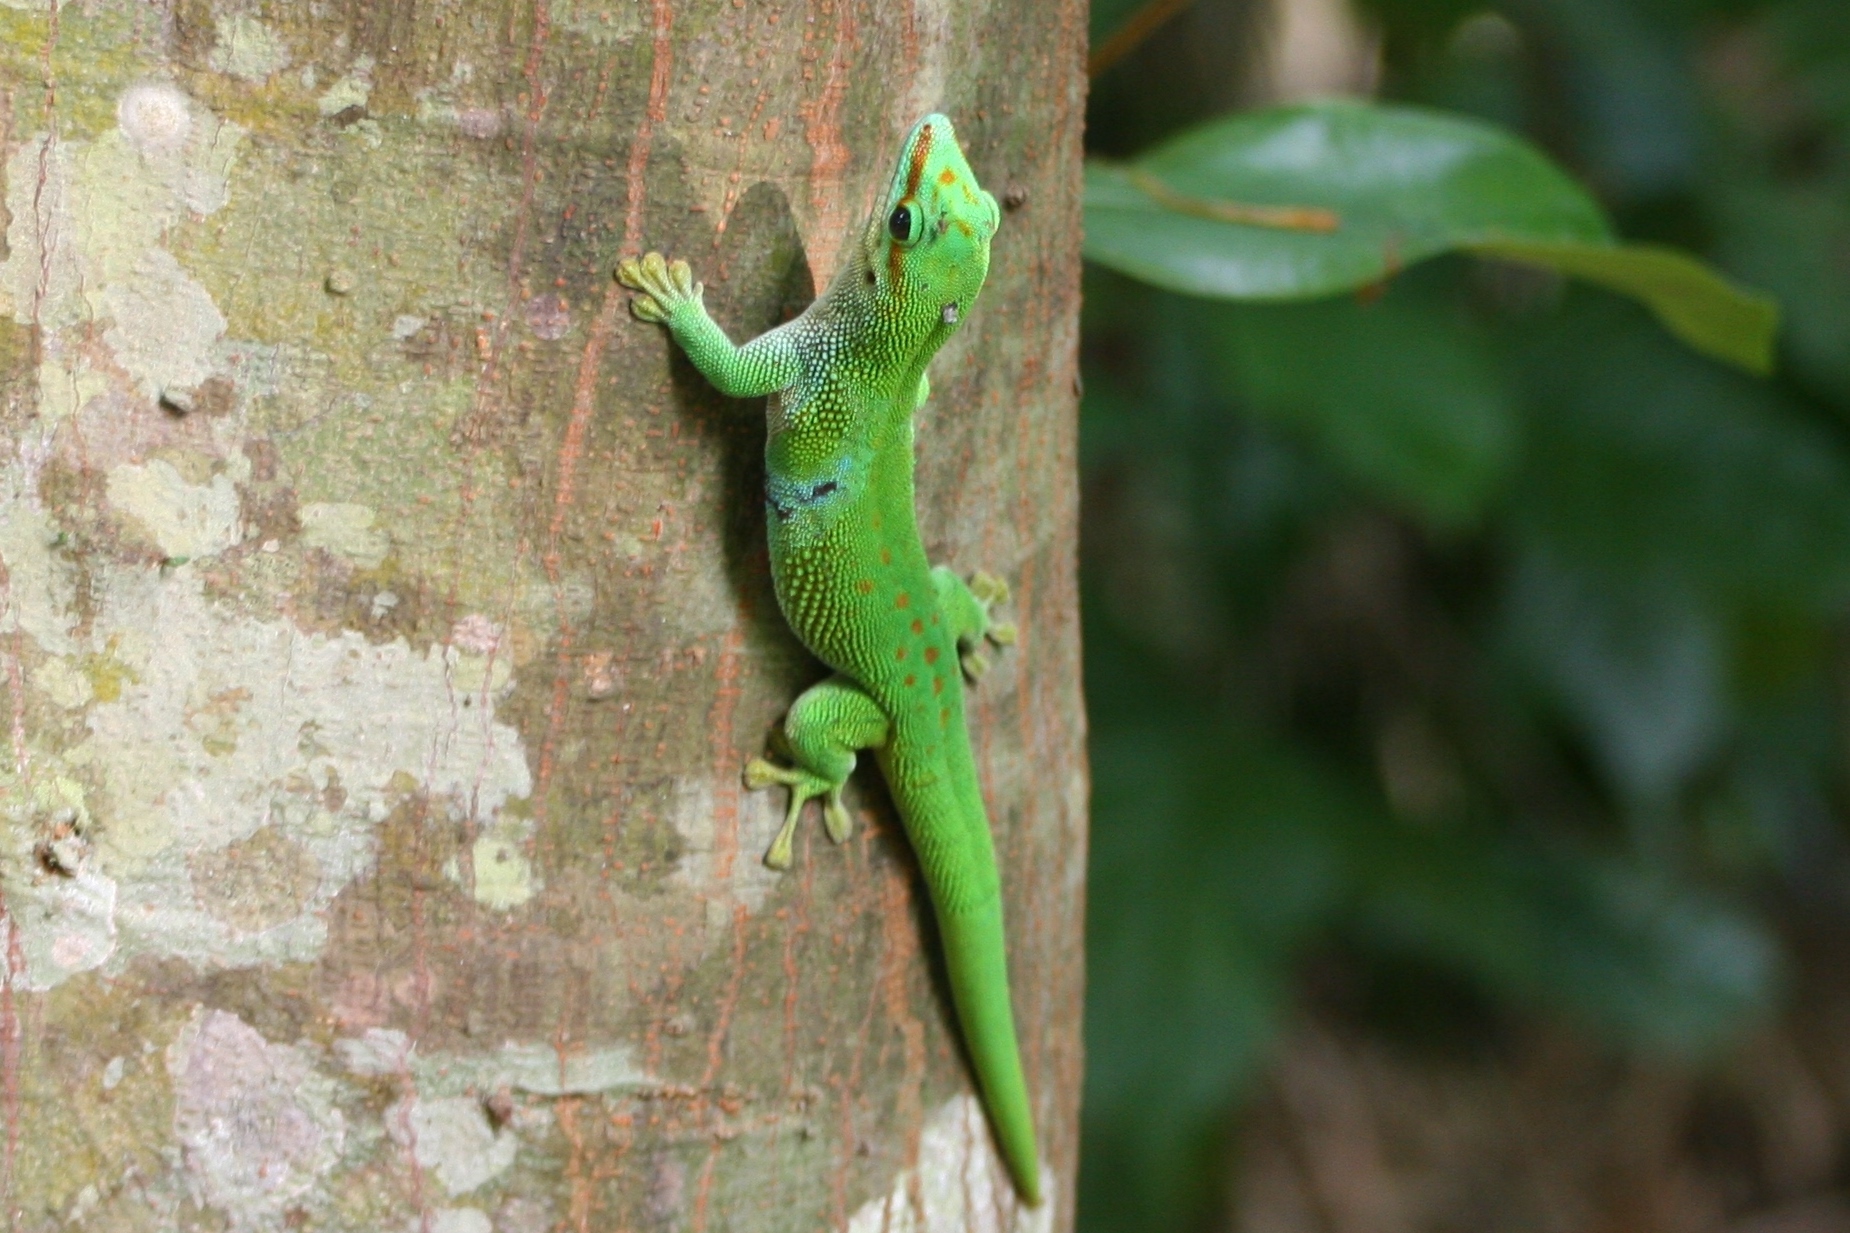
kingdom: Animalia
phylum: Chordata
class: Squamata
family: Gekkonidae
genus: Phelsuma
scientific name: Phelsuma madagascariensis
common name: Madagascar day gecko
